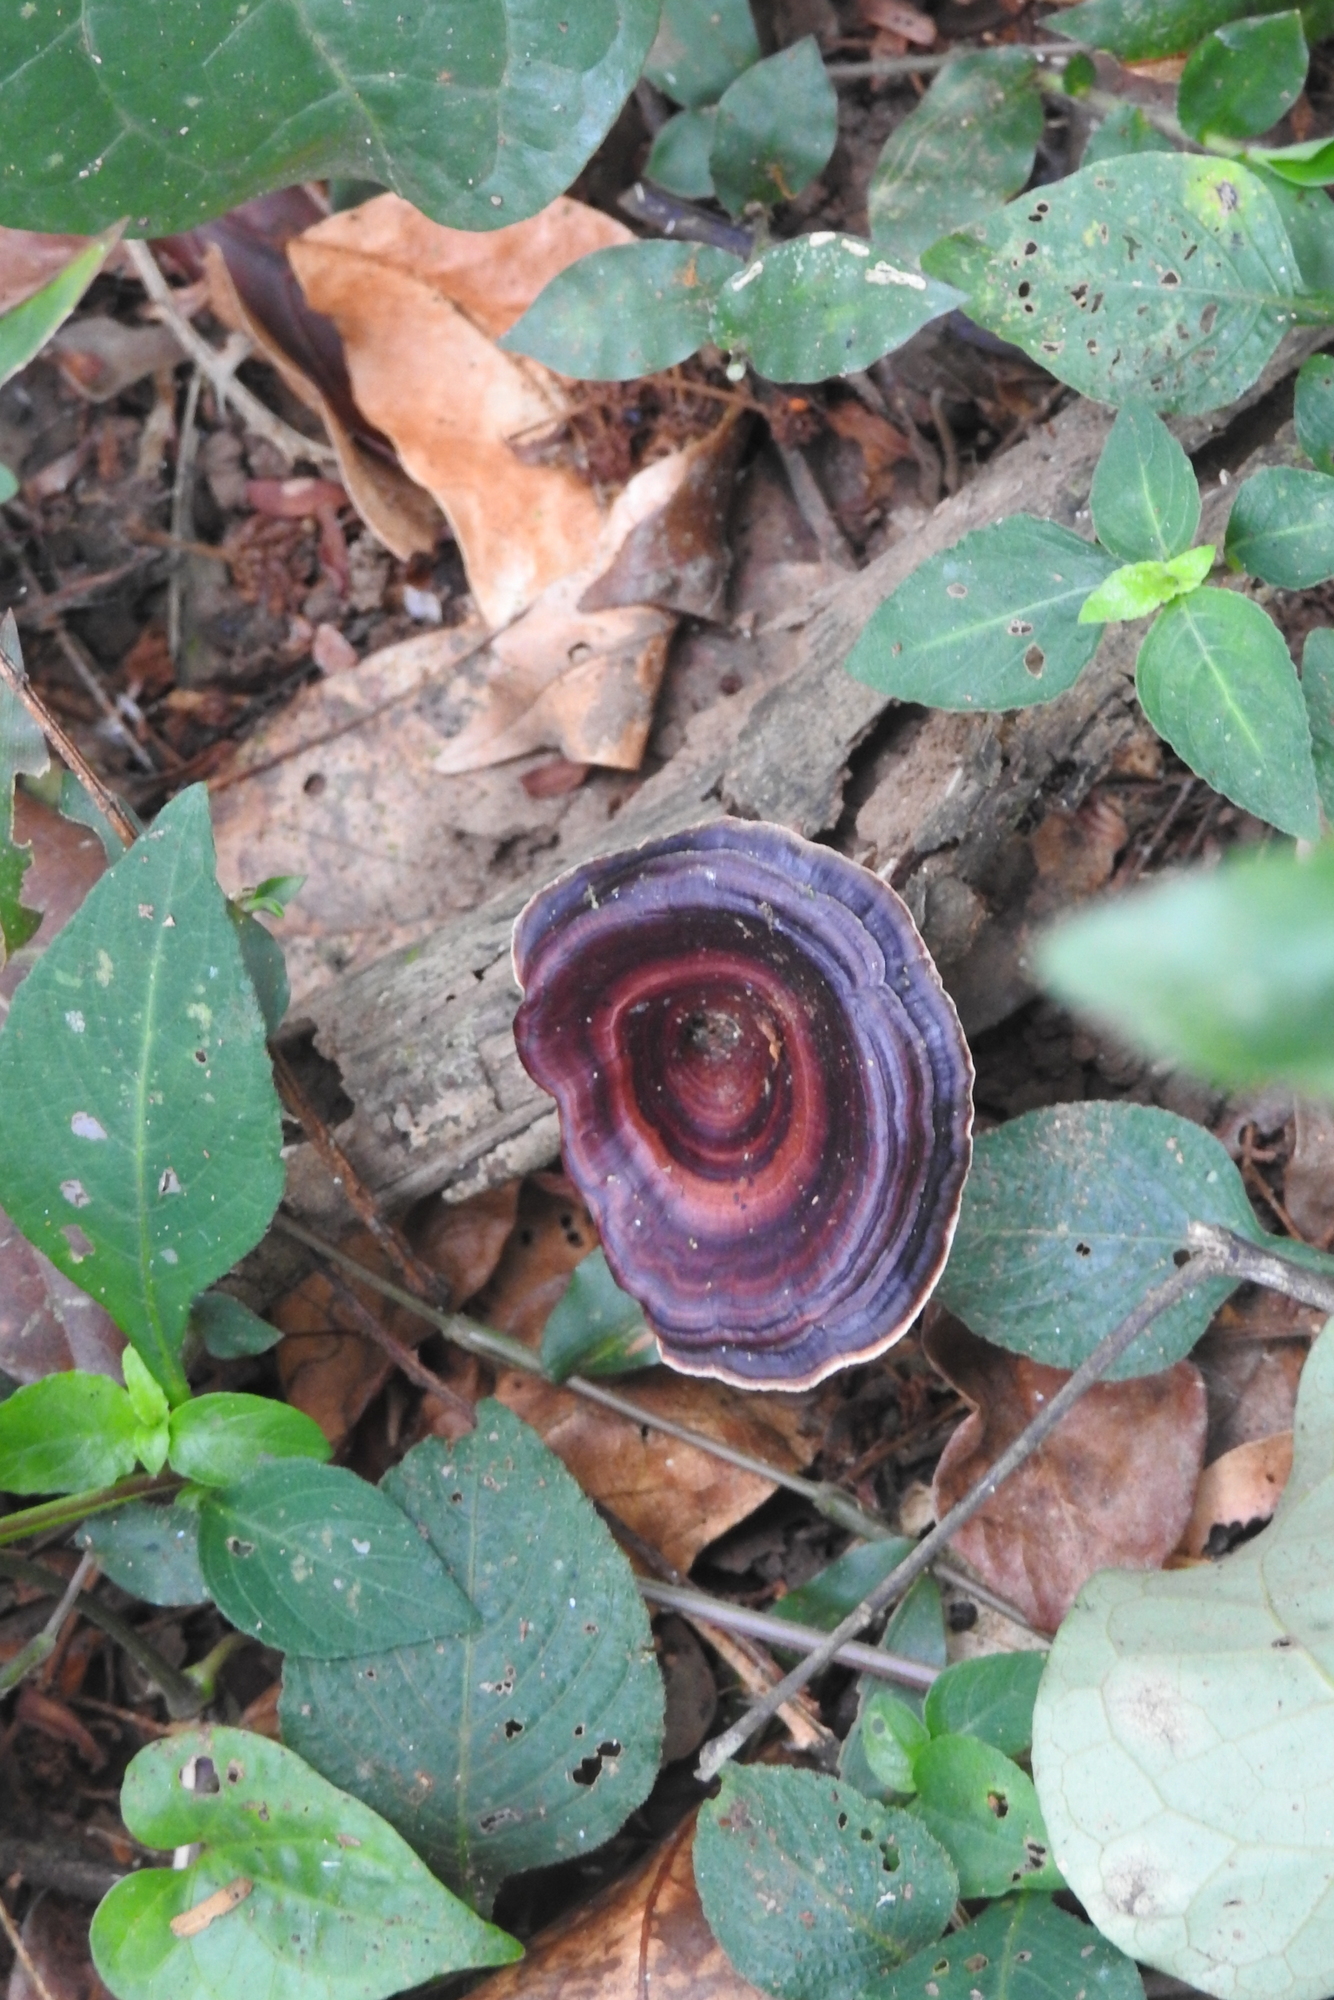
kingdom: Fungi
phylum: Basidiomycota
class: Agaricomycetes
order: Polyporales
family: Polyporaceae
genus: Microporus
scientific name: Microporus xanthopus
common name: Yellow-stemmed micropore
